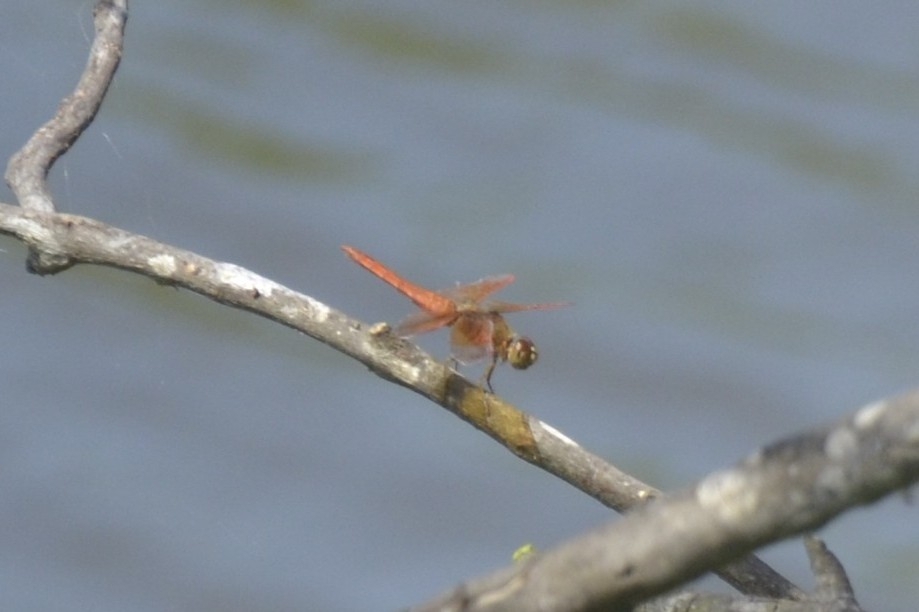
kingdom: Animalia
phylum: Arthropoda
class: Insecta
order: Odonata
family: Libellulidae
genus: Brachythemis
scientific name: Brachythemis contaminata
